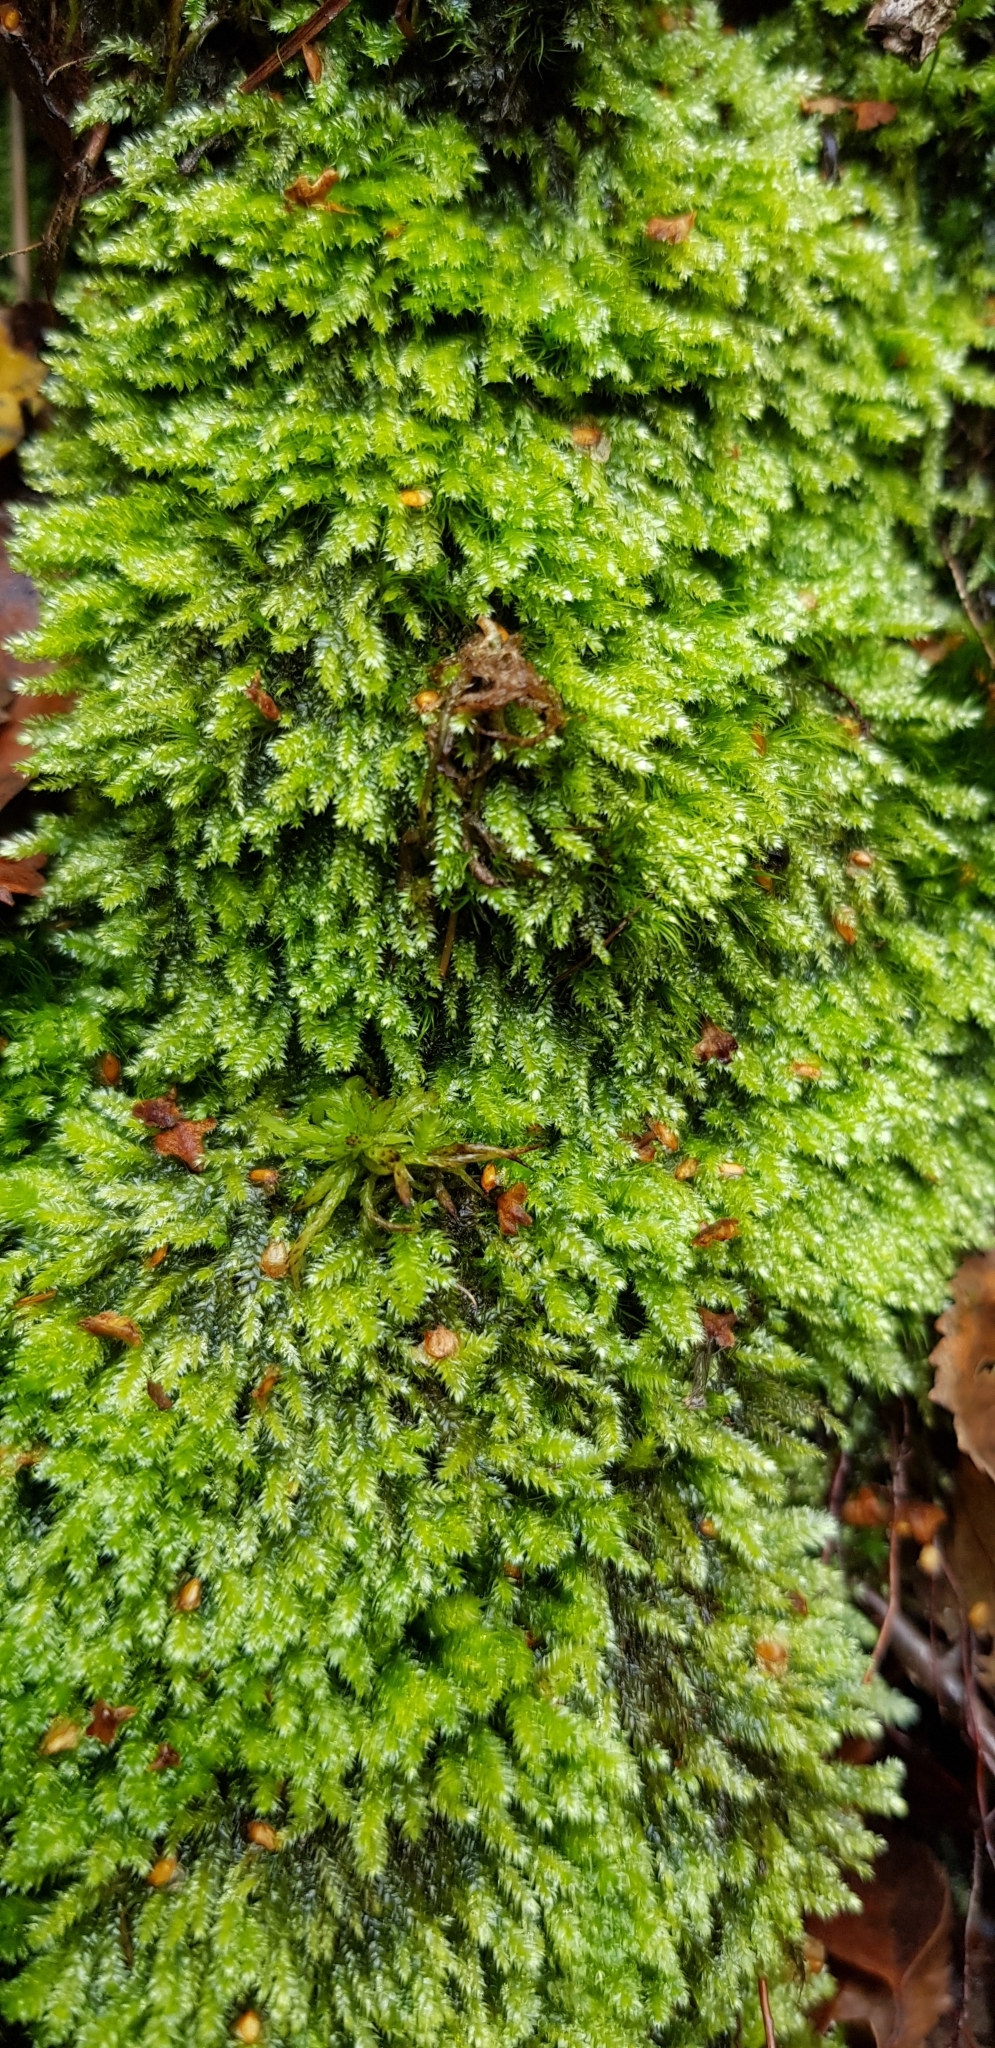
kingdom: Plantae
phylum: Bryophyta
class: Bryopsida
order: Hypnales
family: Plagiotheciaceae
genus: Pseudotaxiphyllum
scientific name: Pseudotaxiphyllum elegans
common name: Elegant silk moss
